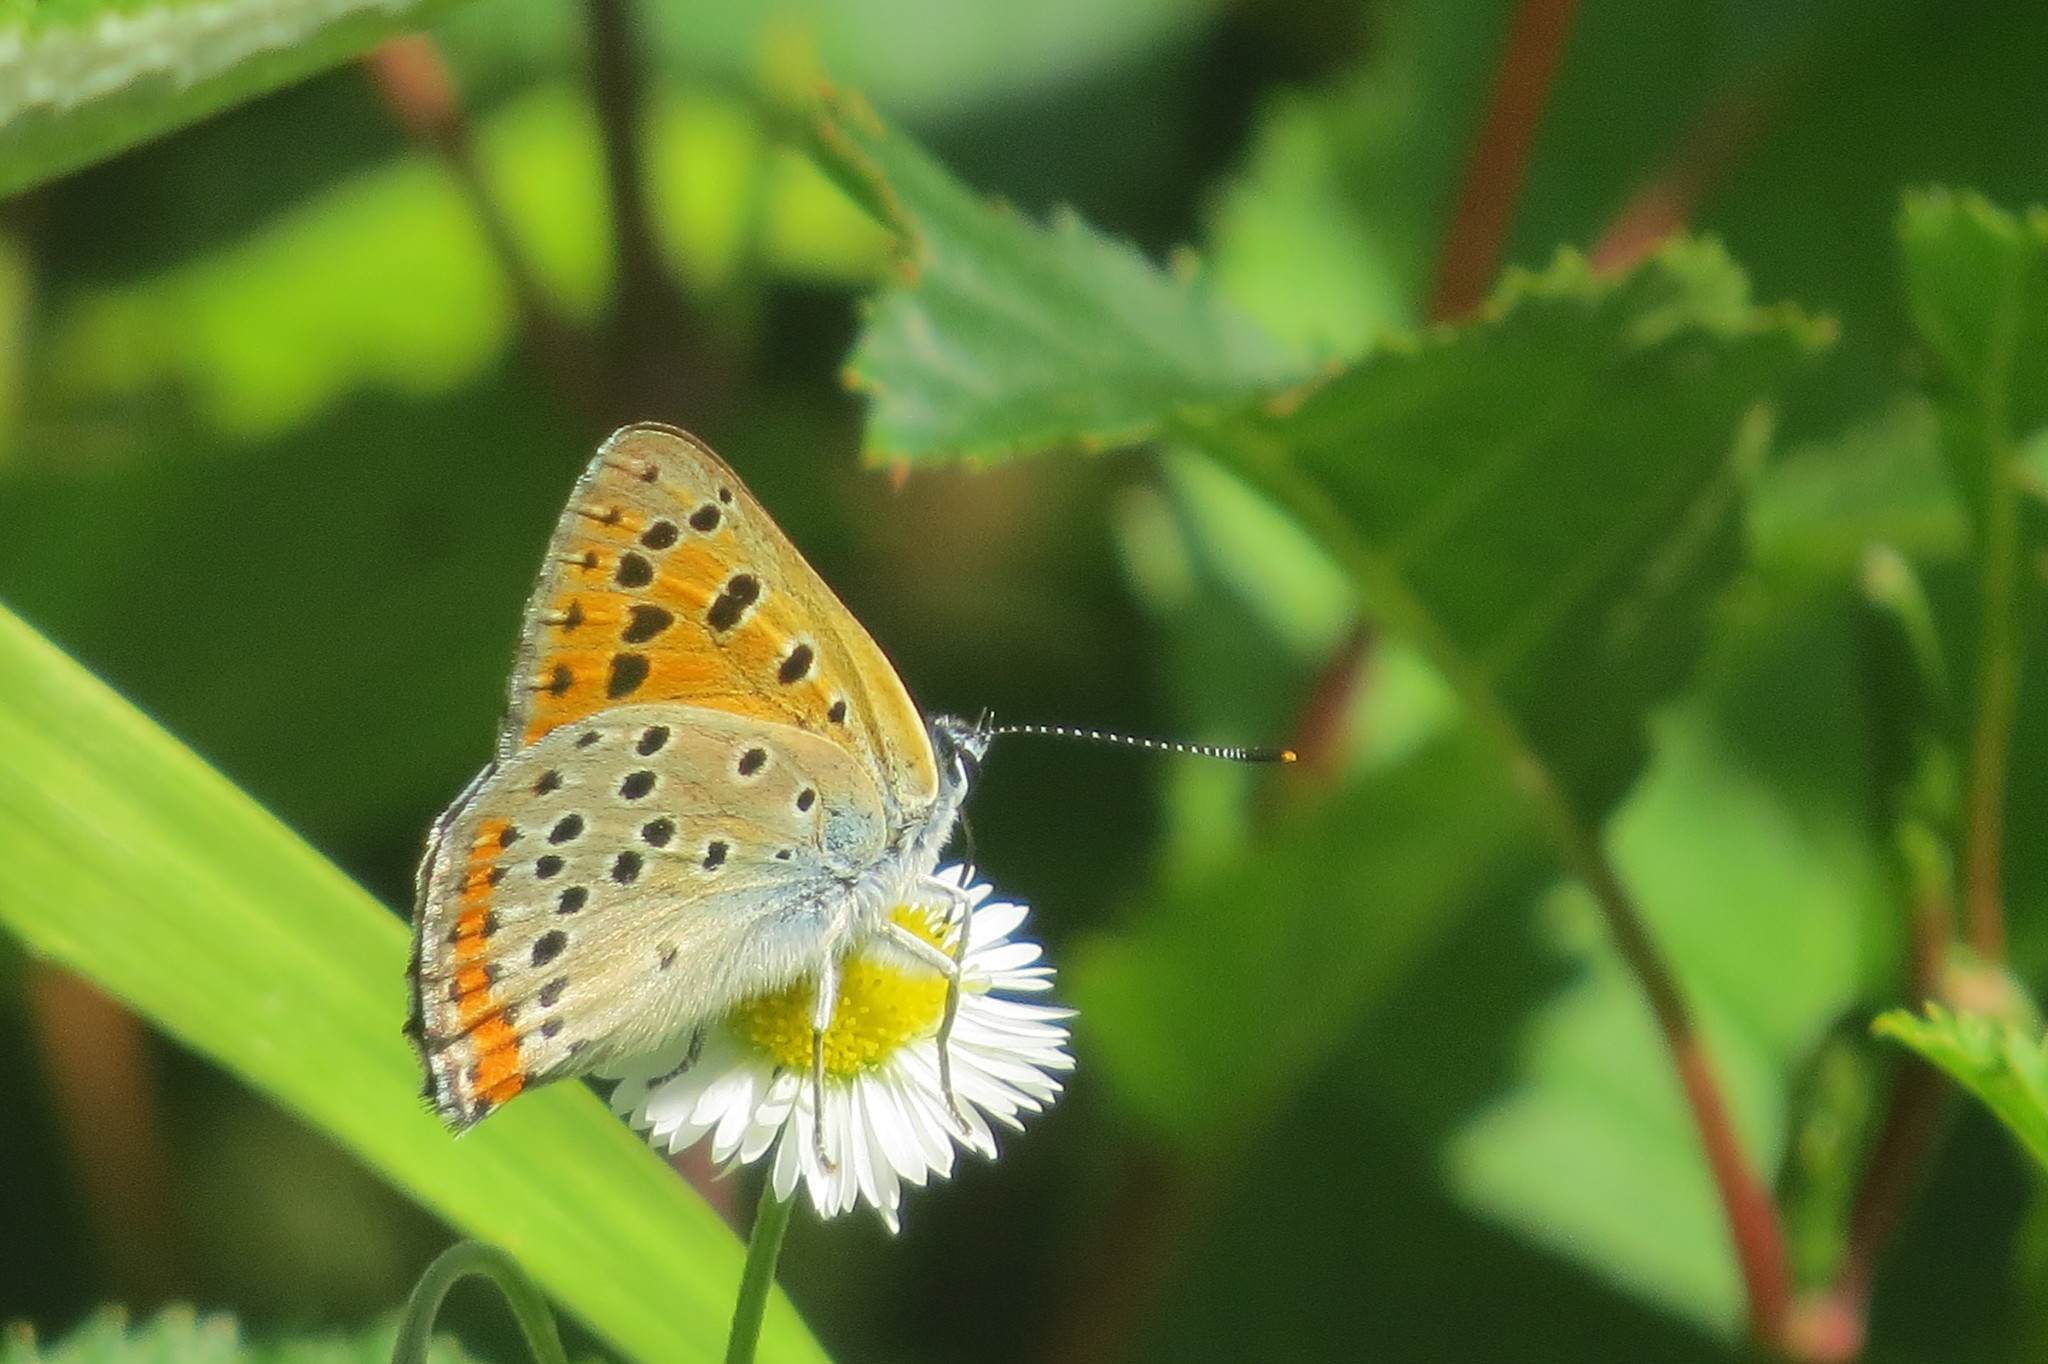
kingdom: Animalia
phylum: Arthropoda
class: Insecta
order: Lepidoptera
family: Lycaenidae
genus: Lycaena
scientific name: Lycaena alciphron
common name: Purple-shot copper
